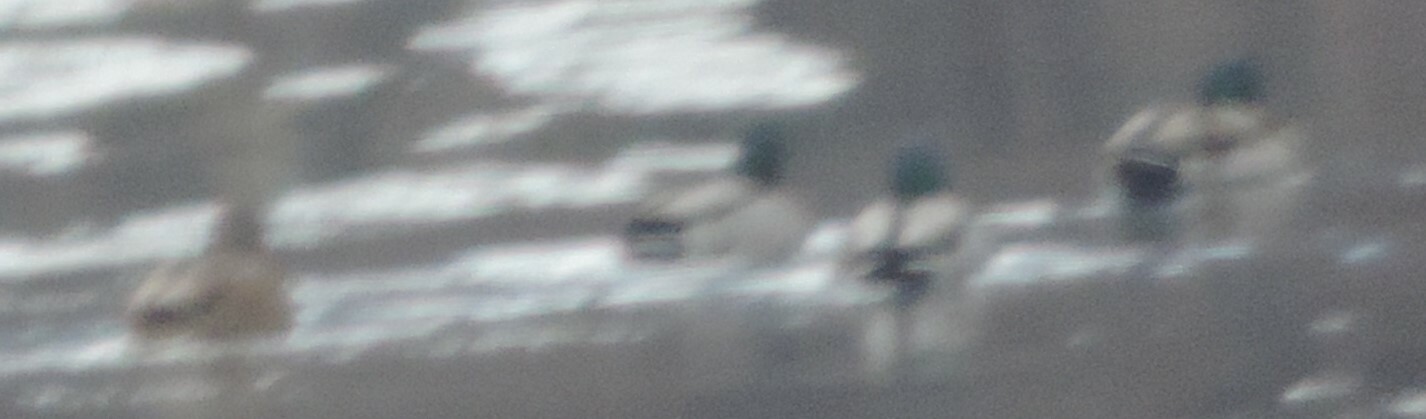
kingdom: Animalia
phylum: Chordata
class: Aves
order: Anseriformes
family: Anatidae
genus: Anas
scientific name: Anas platyrhynchos
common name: Mallard
